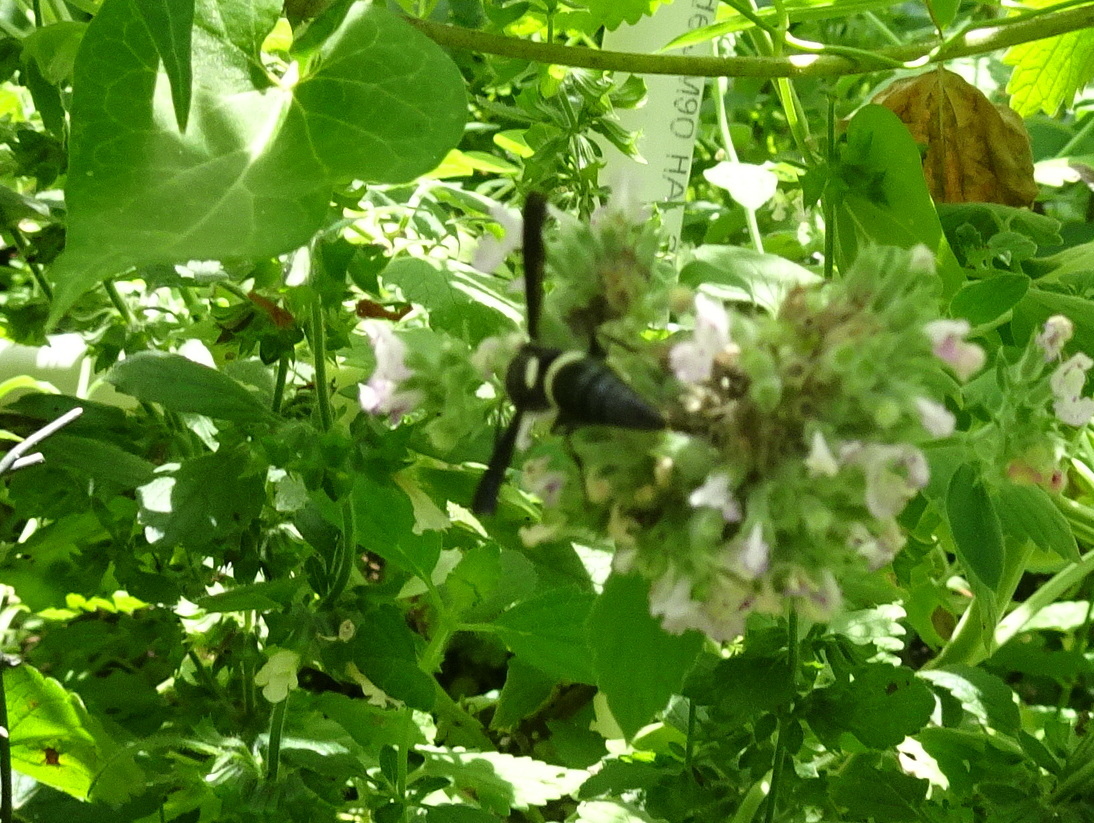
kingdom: Animalia
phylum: Arthropoda
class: Insecta
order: Hymenoptera
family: Eumenidae
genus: Monobia
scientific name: Monobia quadridens
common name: Four-toothed mason wasp
